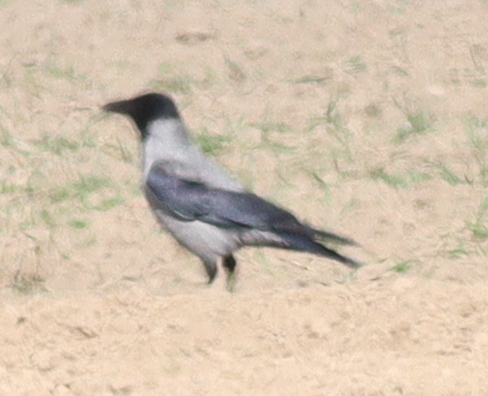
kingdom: Animalia
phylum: Chordata
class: Aves
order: Passeriformes
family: Corvidae
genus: Corvus
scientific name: Corvus cornix
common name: Hooded crow
